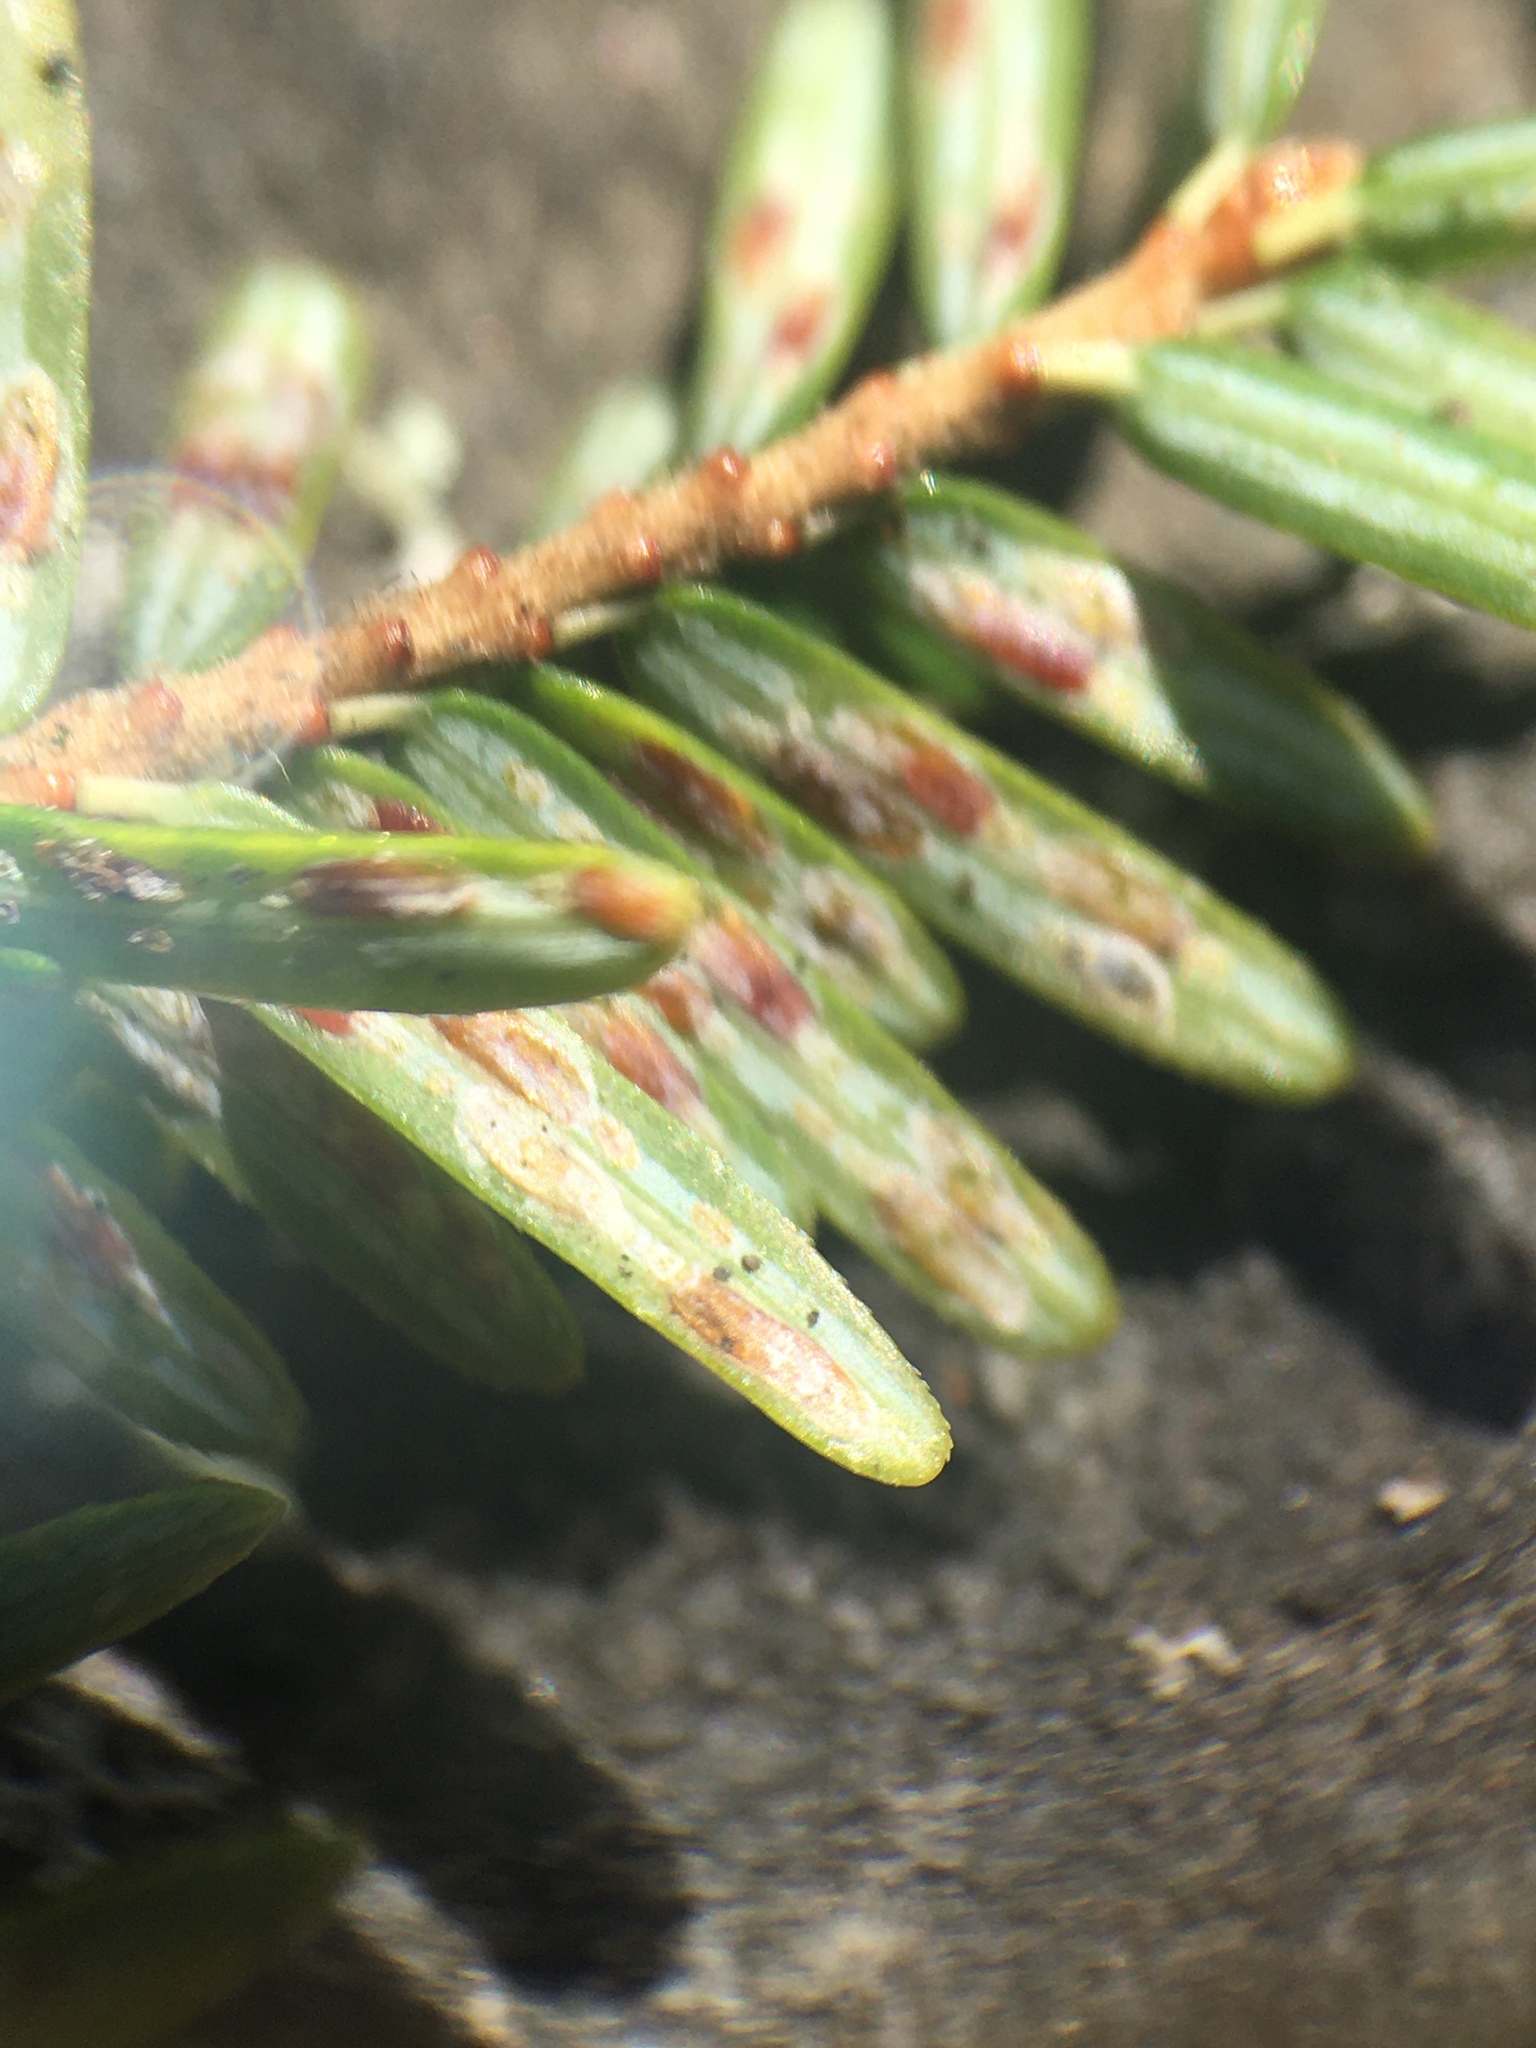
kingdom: Animalia
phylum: Arthropoda
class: Insecta
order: Hemiptera
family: Diaspididae
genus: Fiorinia
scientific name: Fiorinia externa
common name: Elongate hemlock scale
